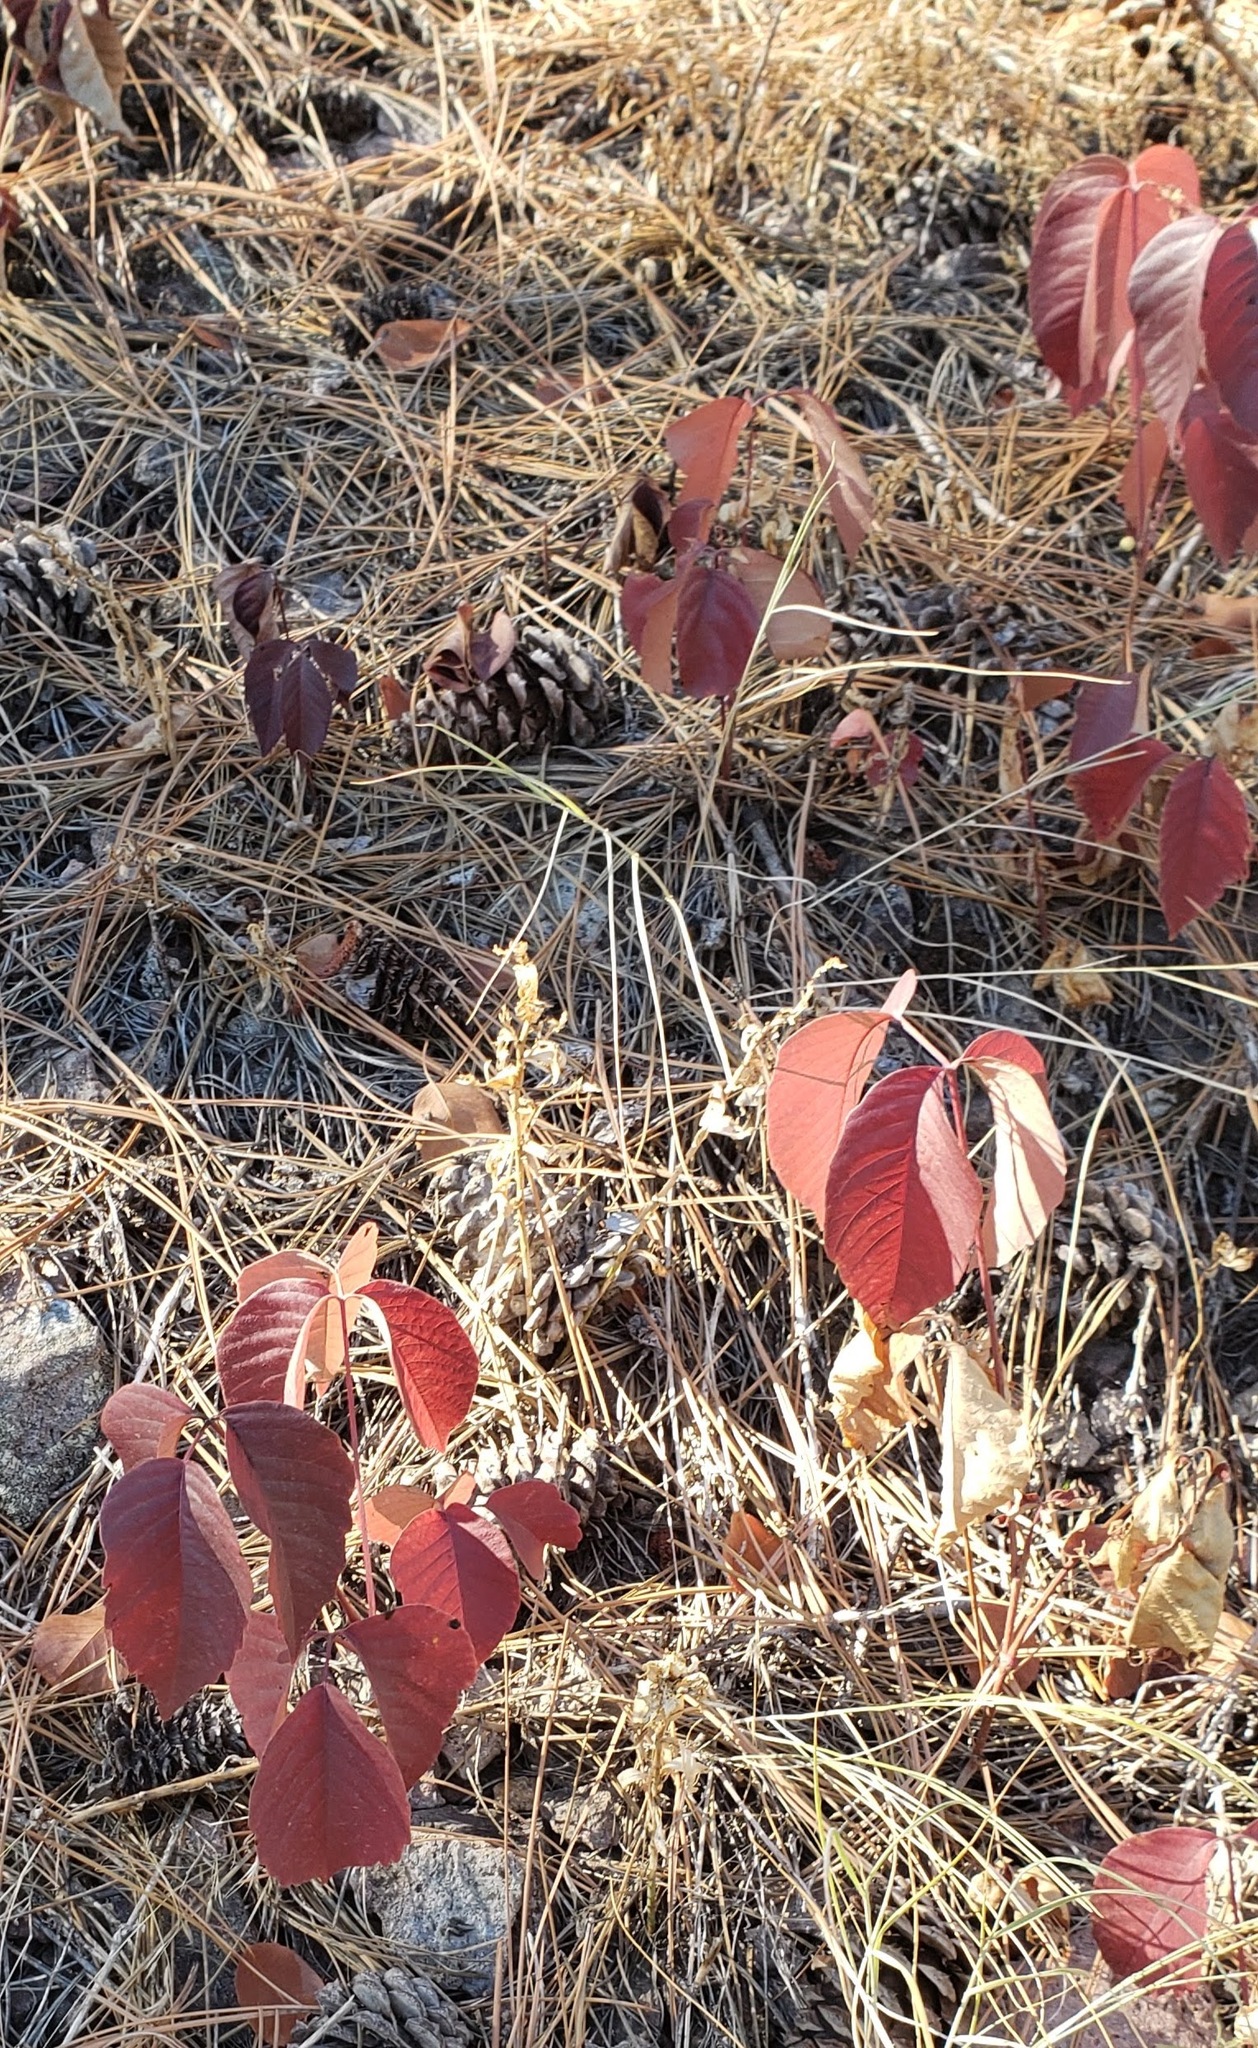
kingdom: Plantae
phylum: Tracheophyta
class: Magnoliopsida
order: Sapindales
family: Anacardiaceae
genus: Toxicodendron
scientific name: Toxicodendron rydbergii
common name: Rydberg's poison-ivy
